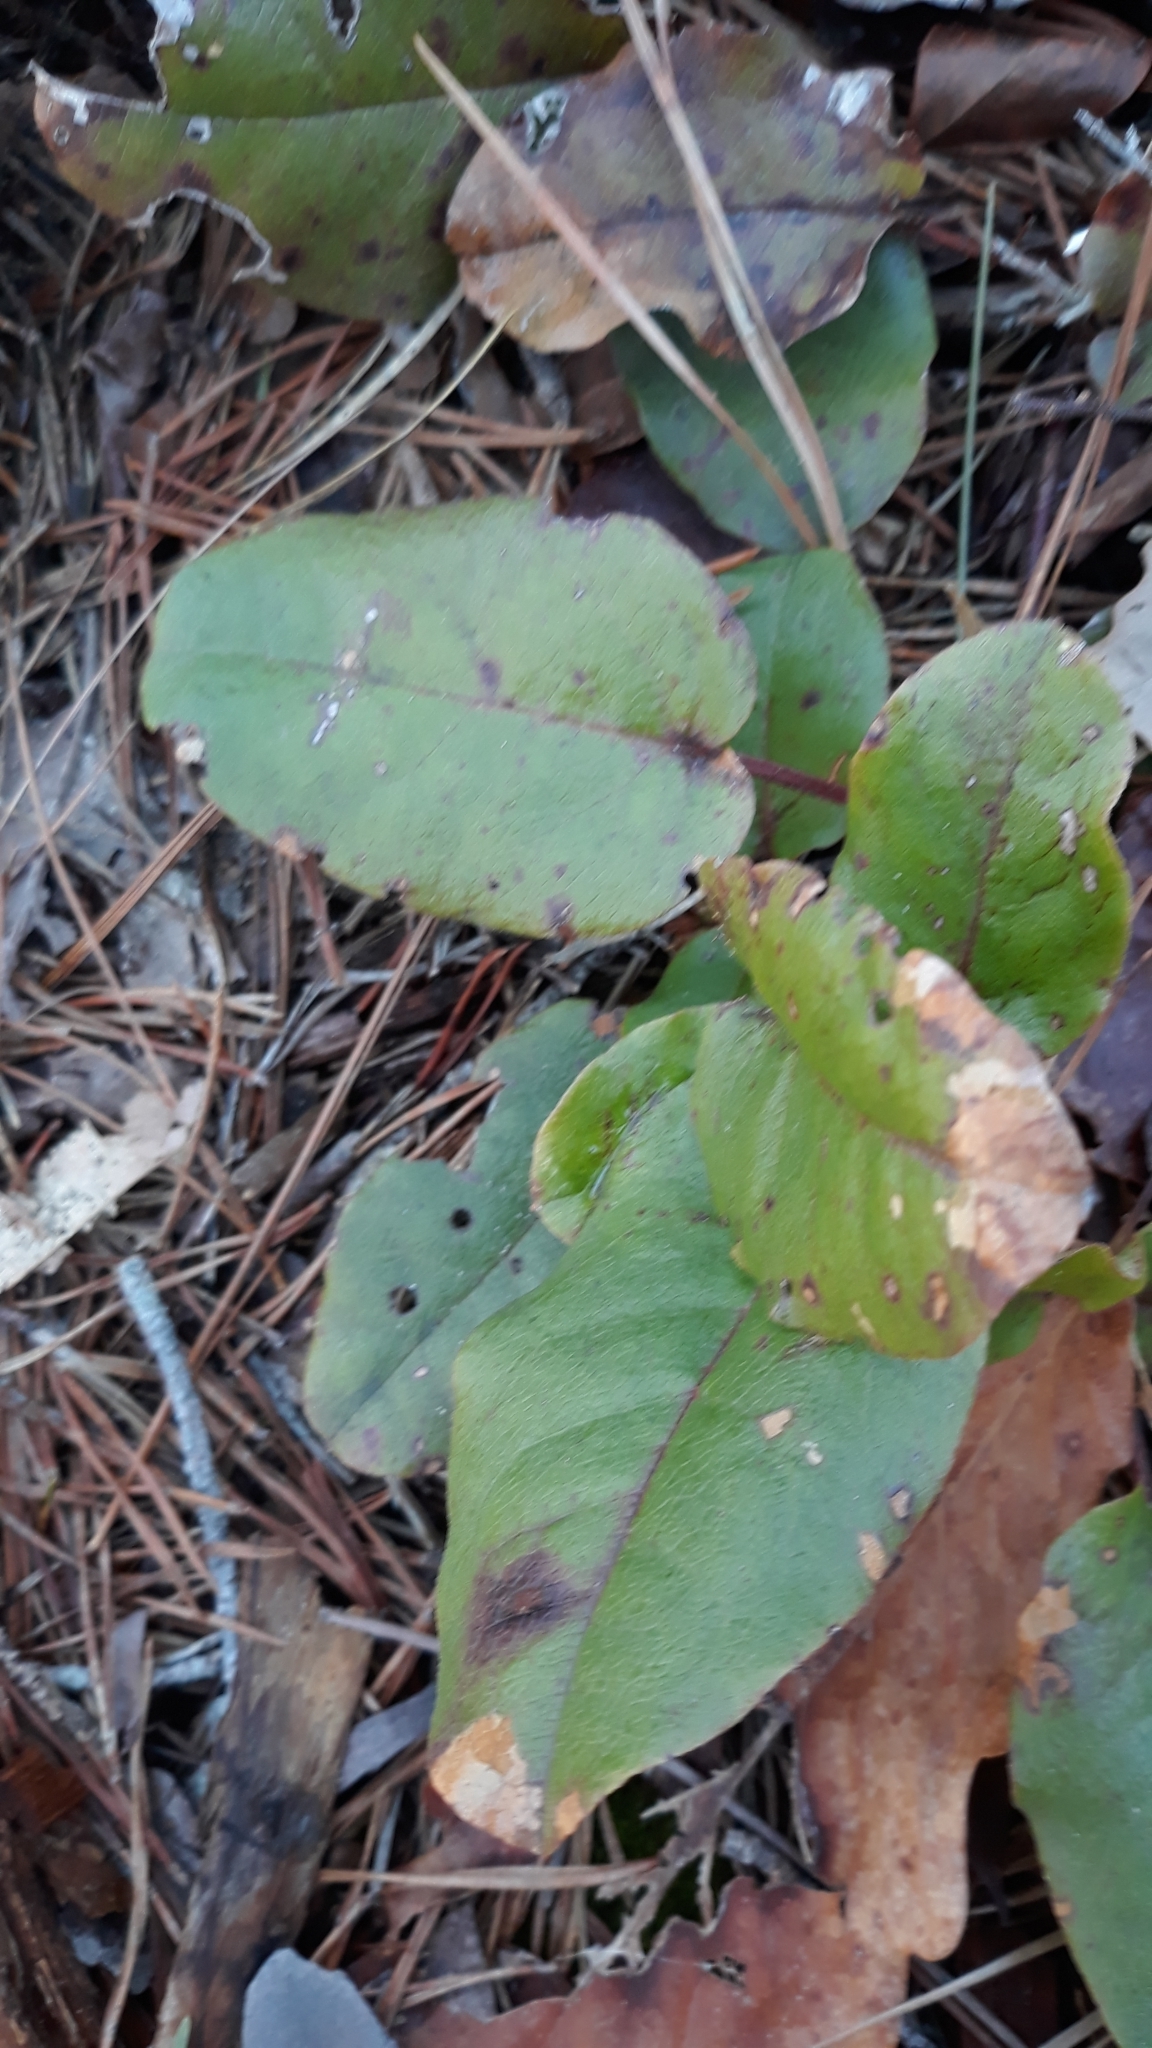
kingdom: Plantae
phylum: Tracheophyta
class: Magnoliopsida
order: Ericales
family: Ericaceae
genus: Epigaea
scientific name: Epigaea repens
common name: Gravelroot
